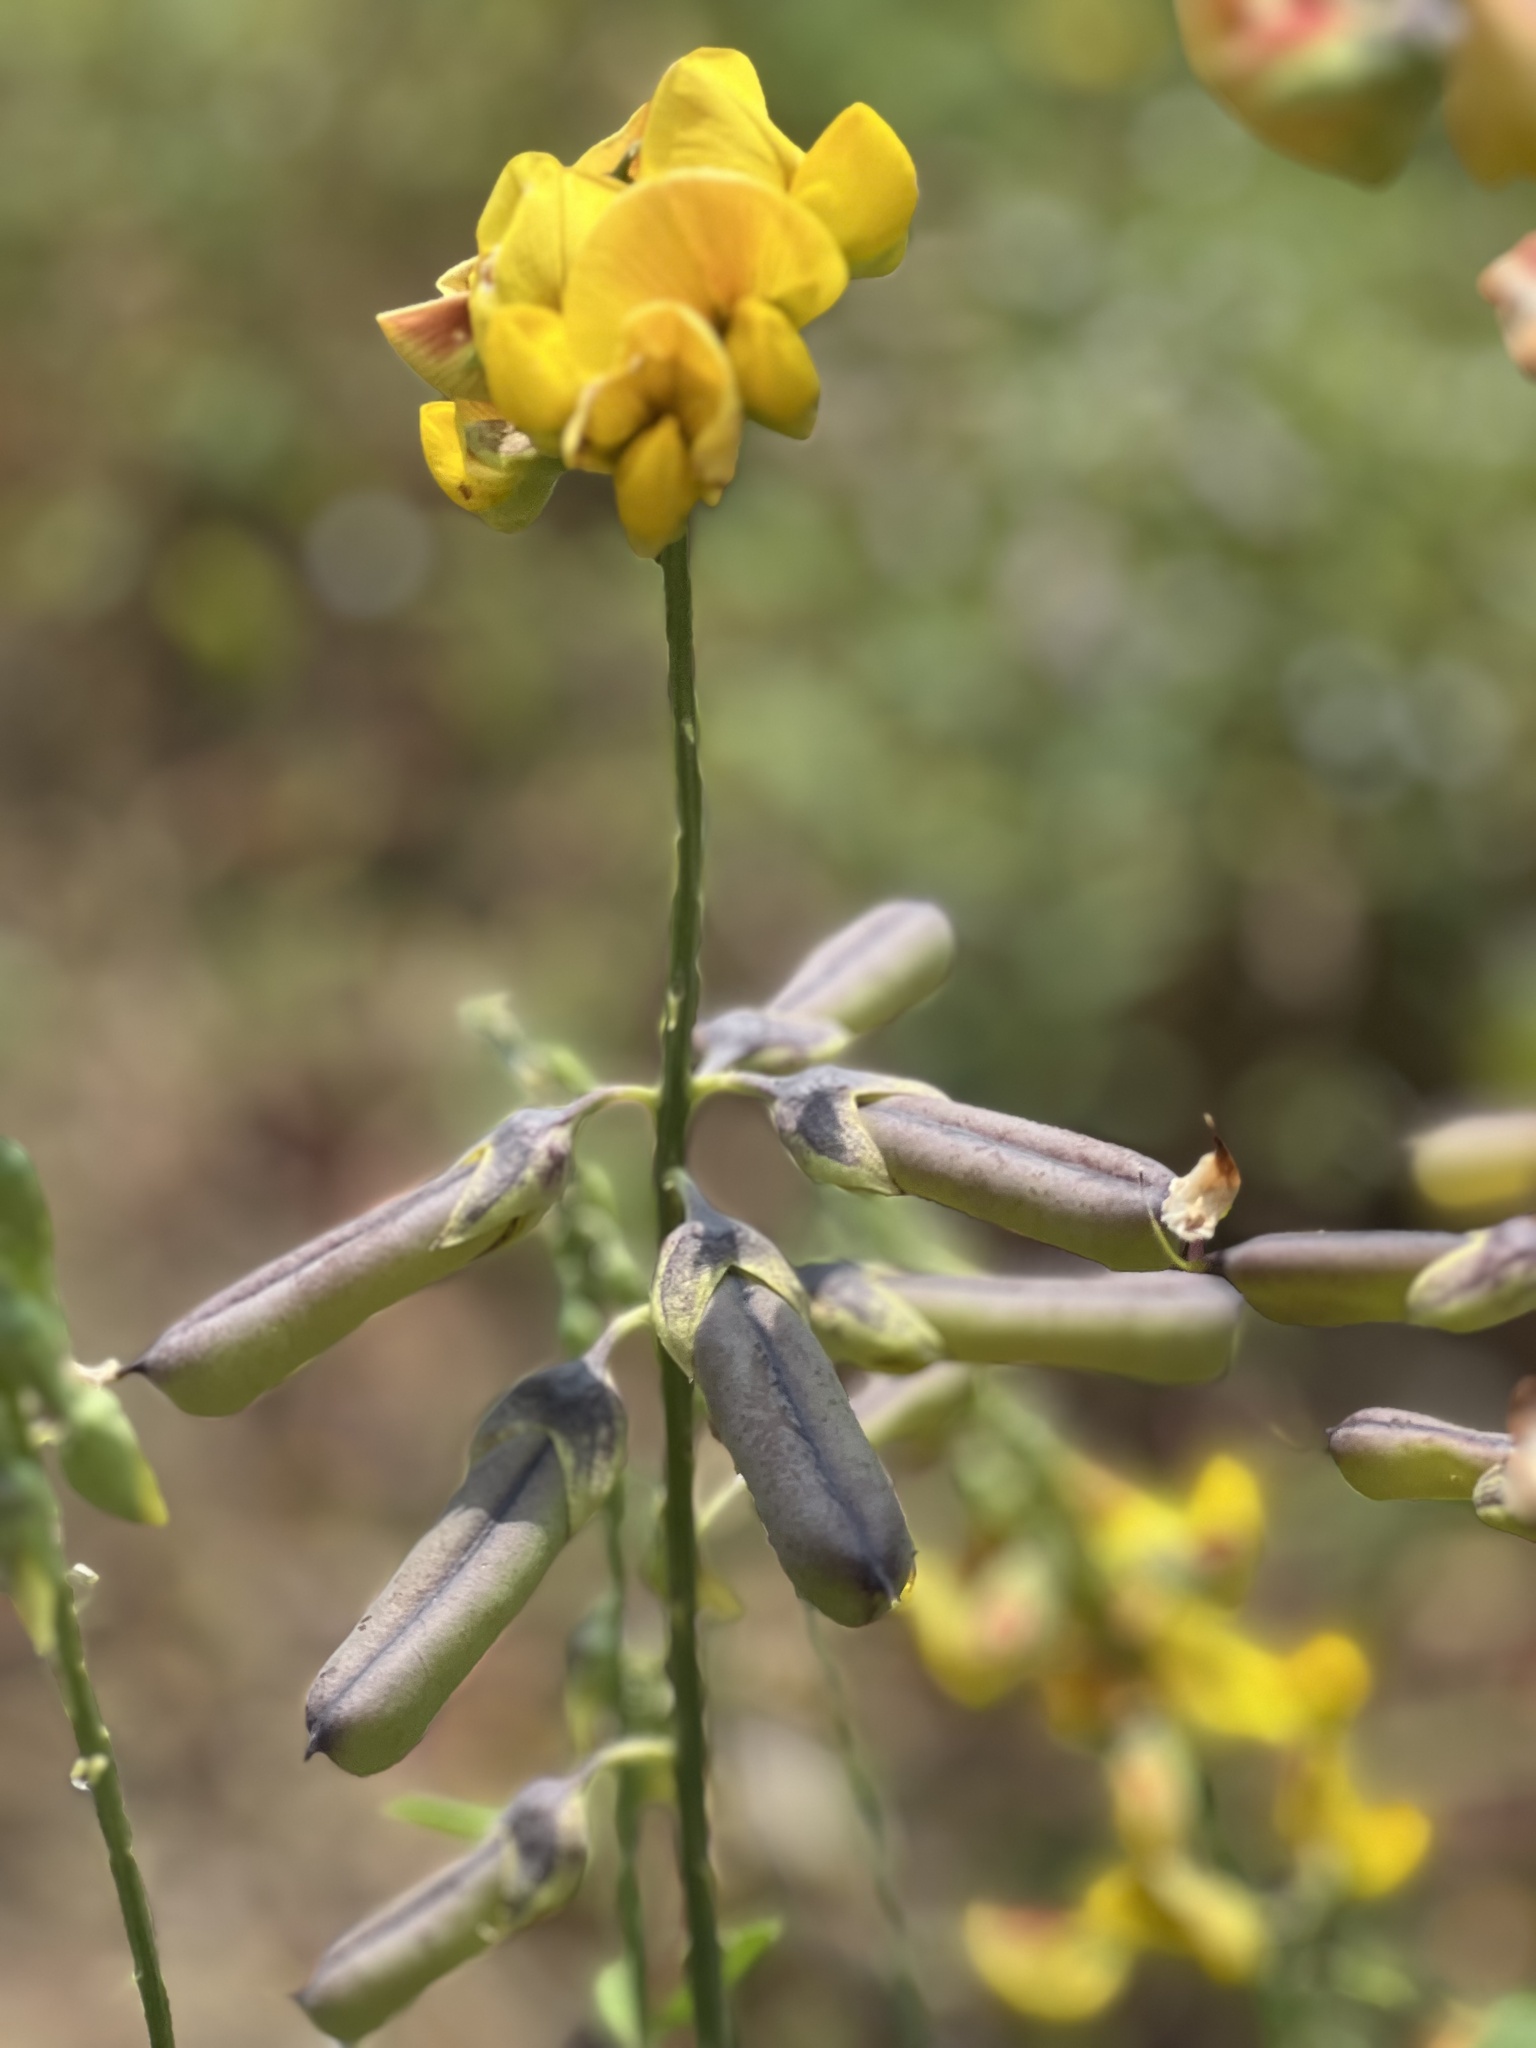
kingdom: Plantae
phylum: Tracheophyta
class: Magnoliopsida
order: Fabales
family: Fabaceae
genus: Crotalaria
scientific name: Crotalaria trichotoma
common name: West indian rattlebox
